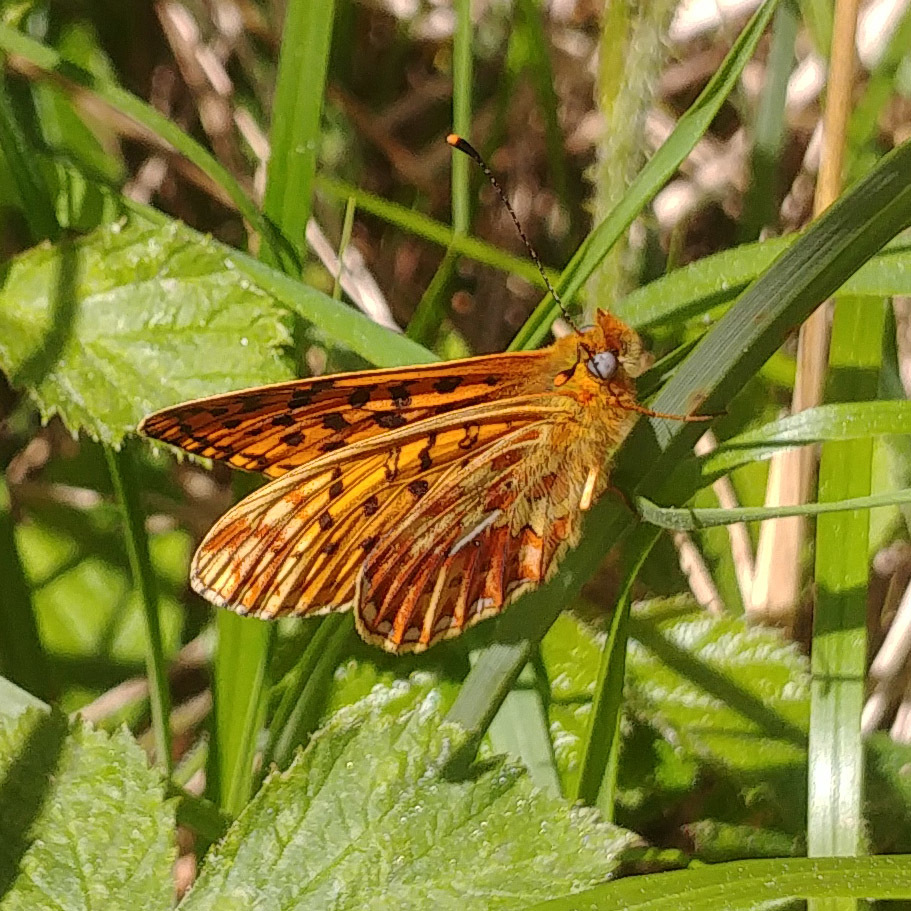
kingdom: Animalia
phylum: Arthropoda
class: Insecta
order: Lepidoptera
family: Nymphalidae
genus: Clossiana
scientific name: Clossiana euphrosyne
